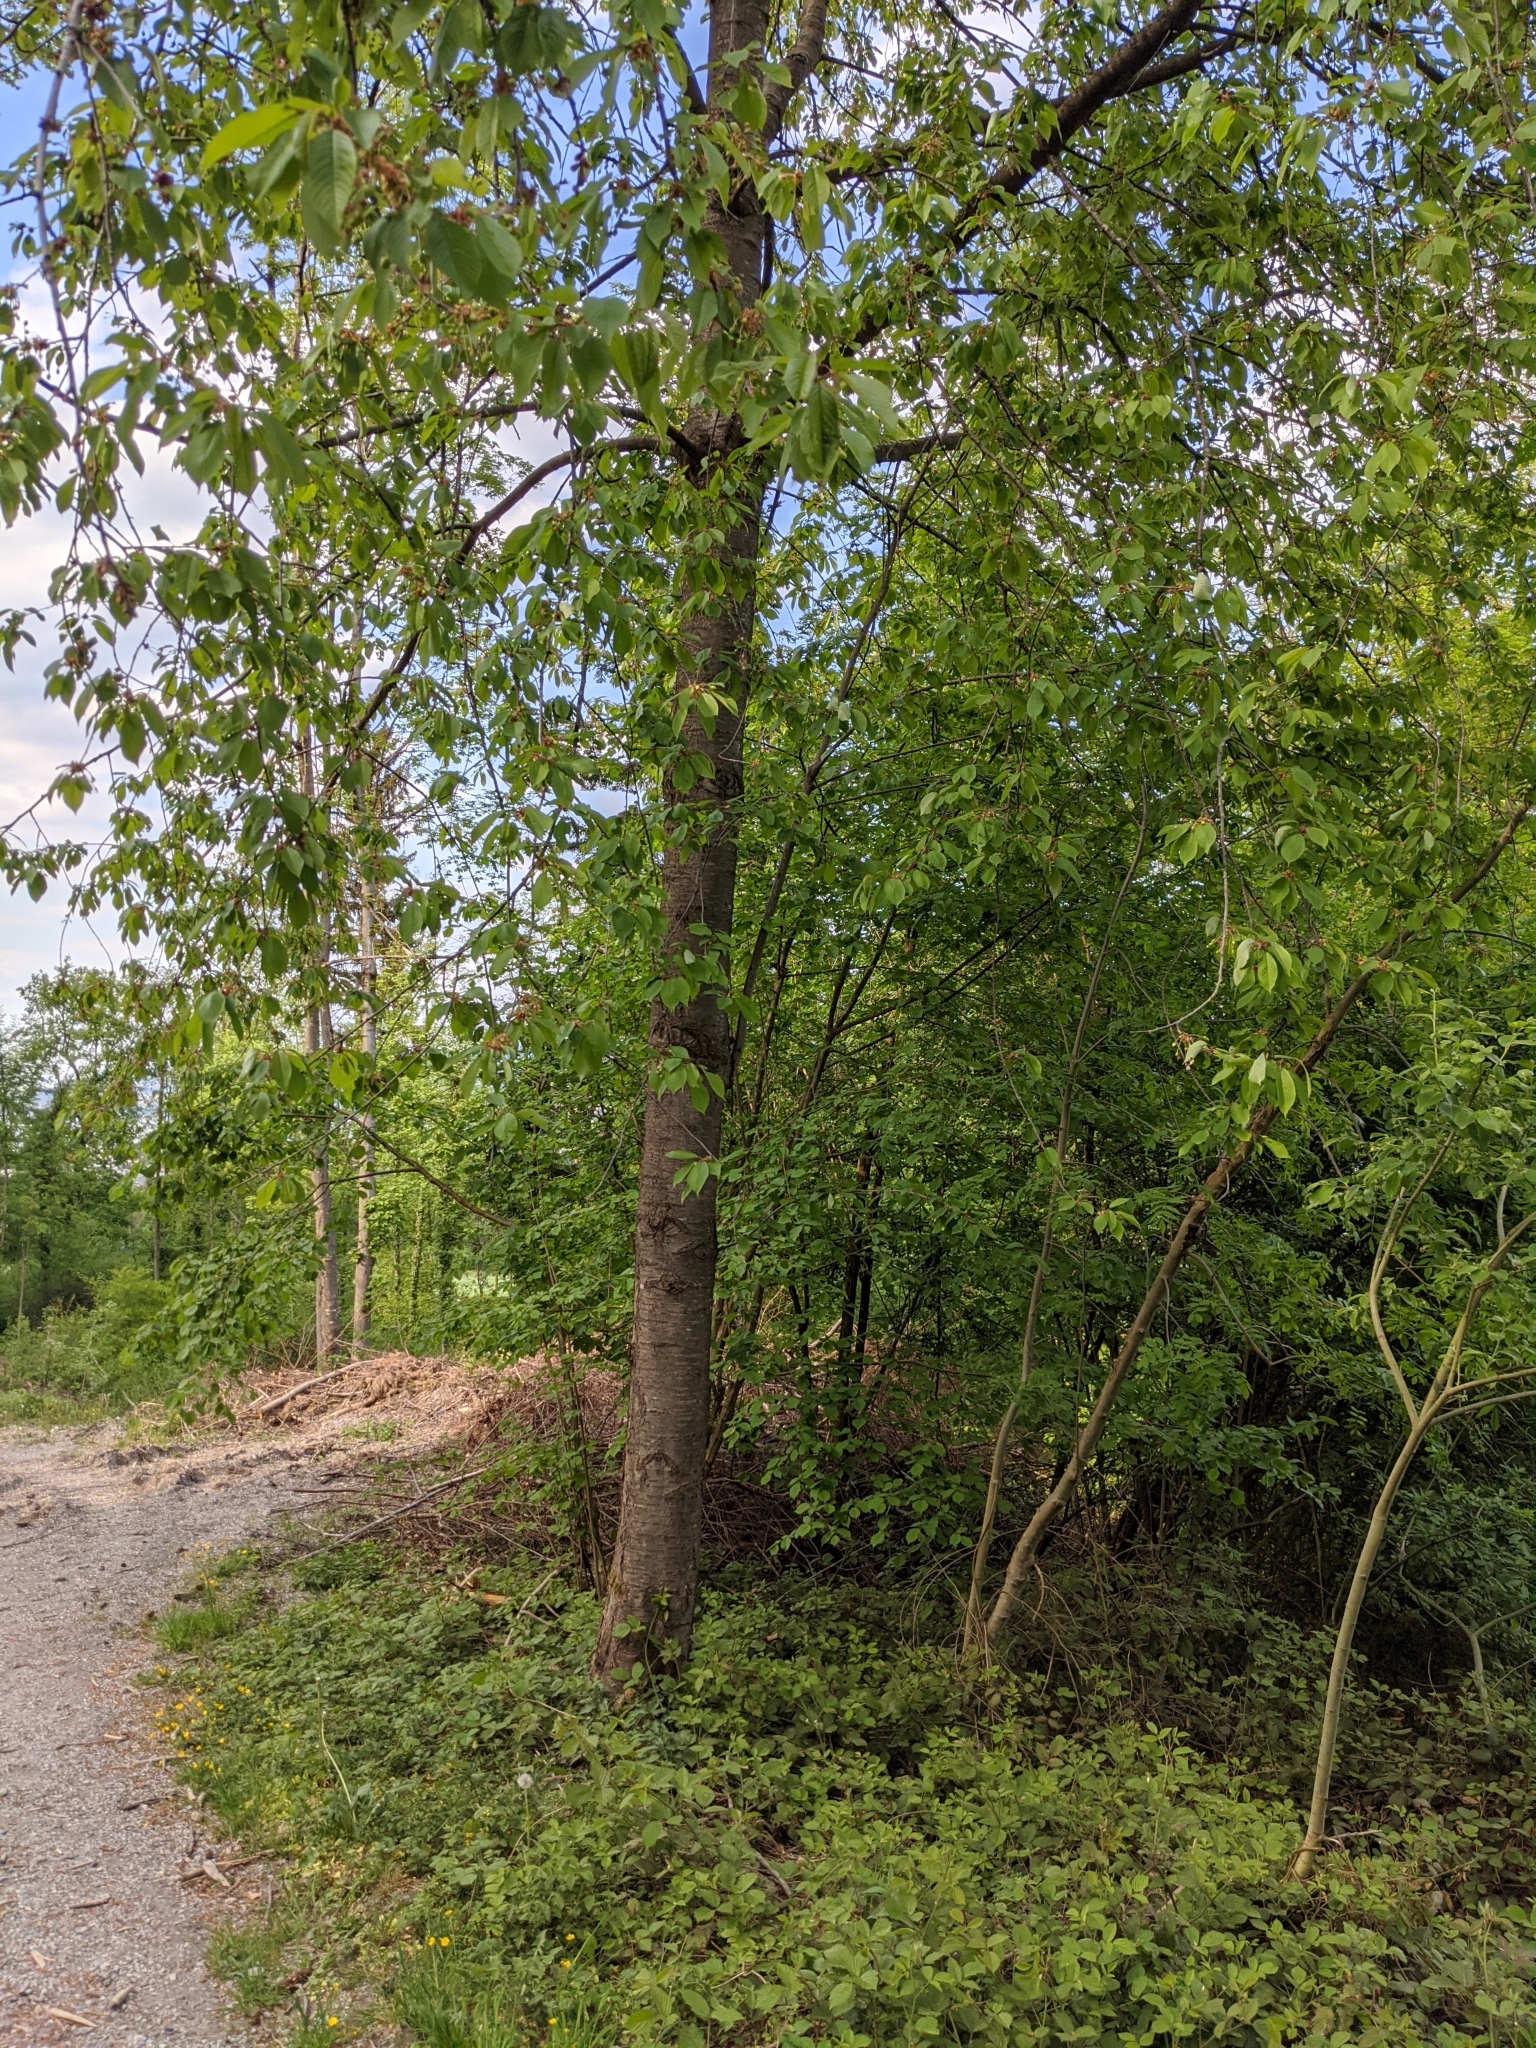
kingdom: Plantae
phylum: Tracheophyta
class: Magnoliopsida
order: Rosales
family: Rosaceae
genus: Prunus
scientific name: Prunus avium
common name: Sweet cherry
